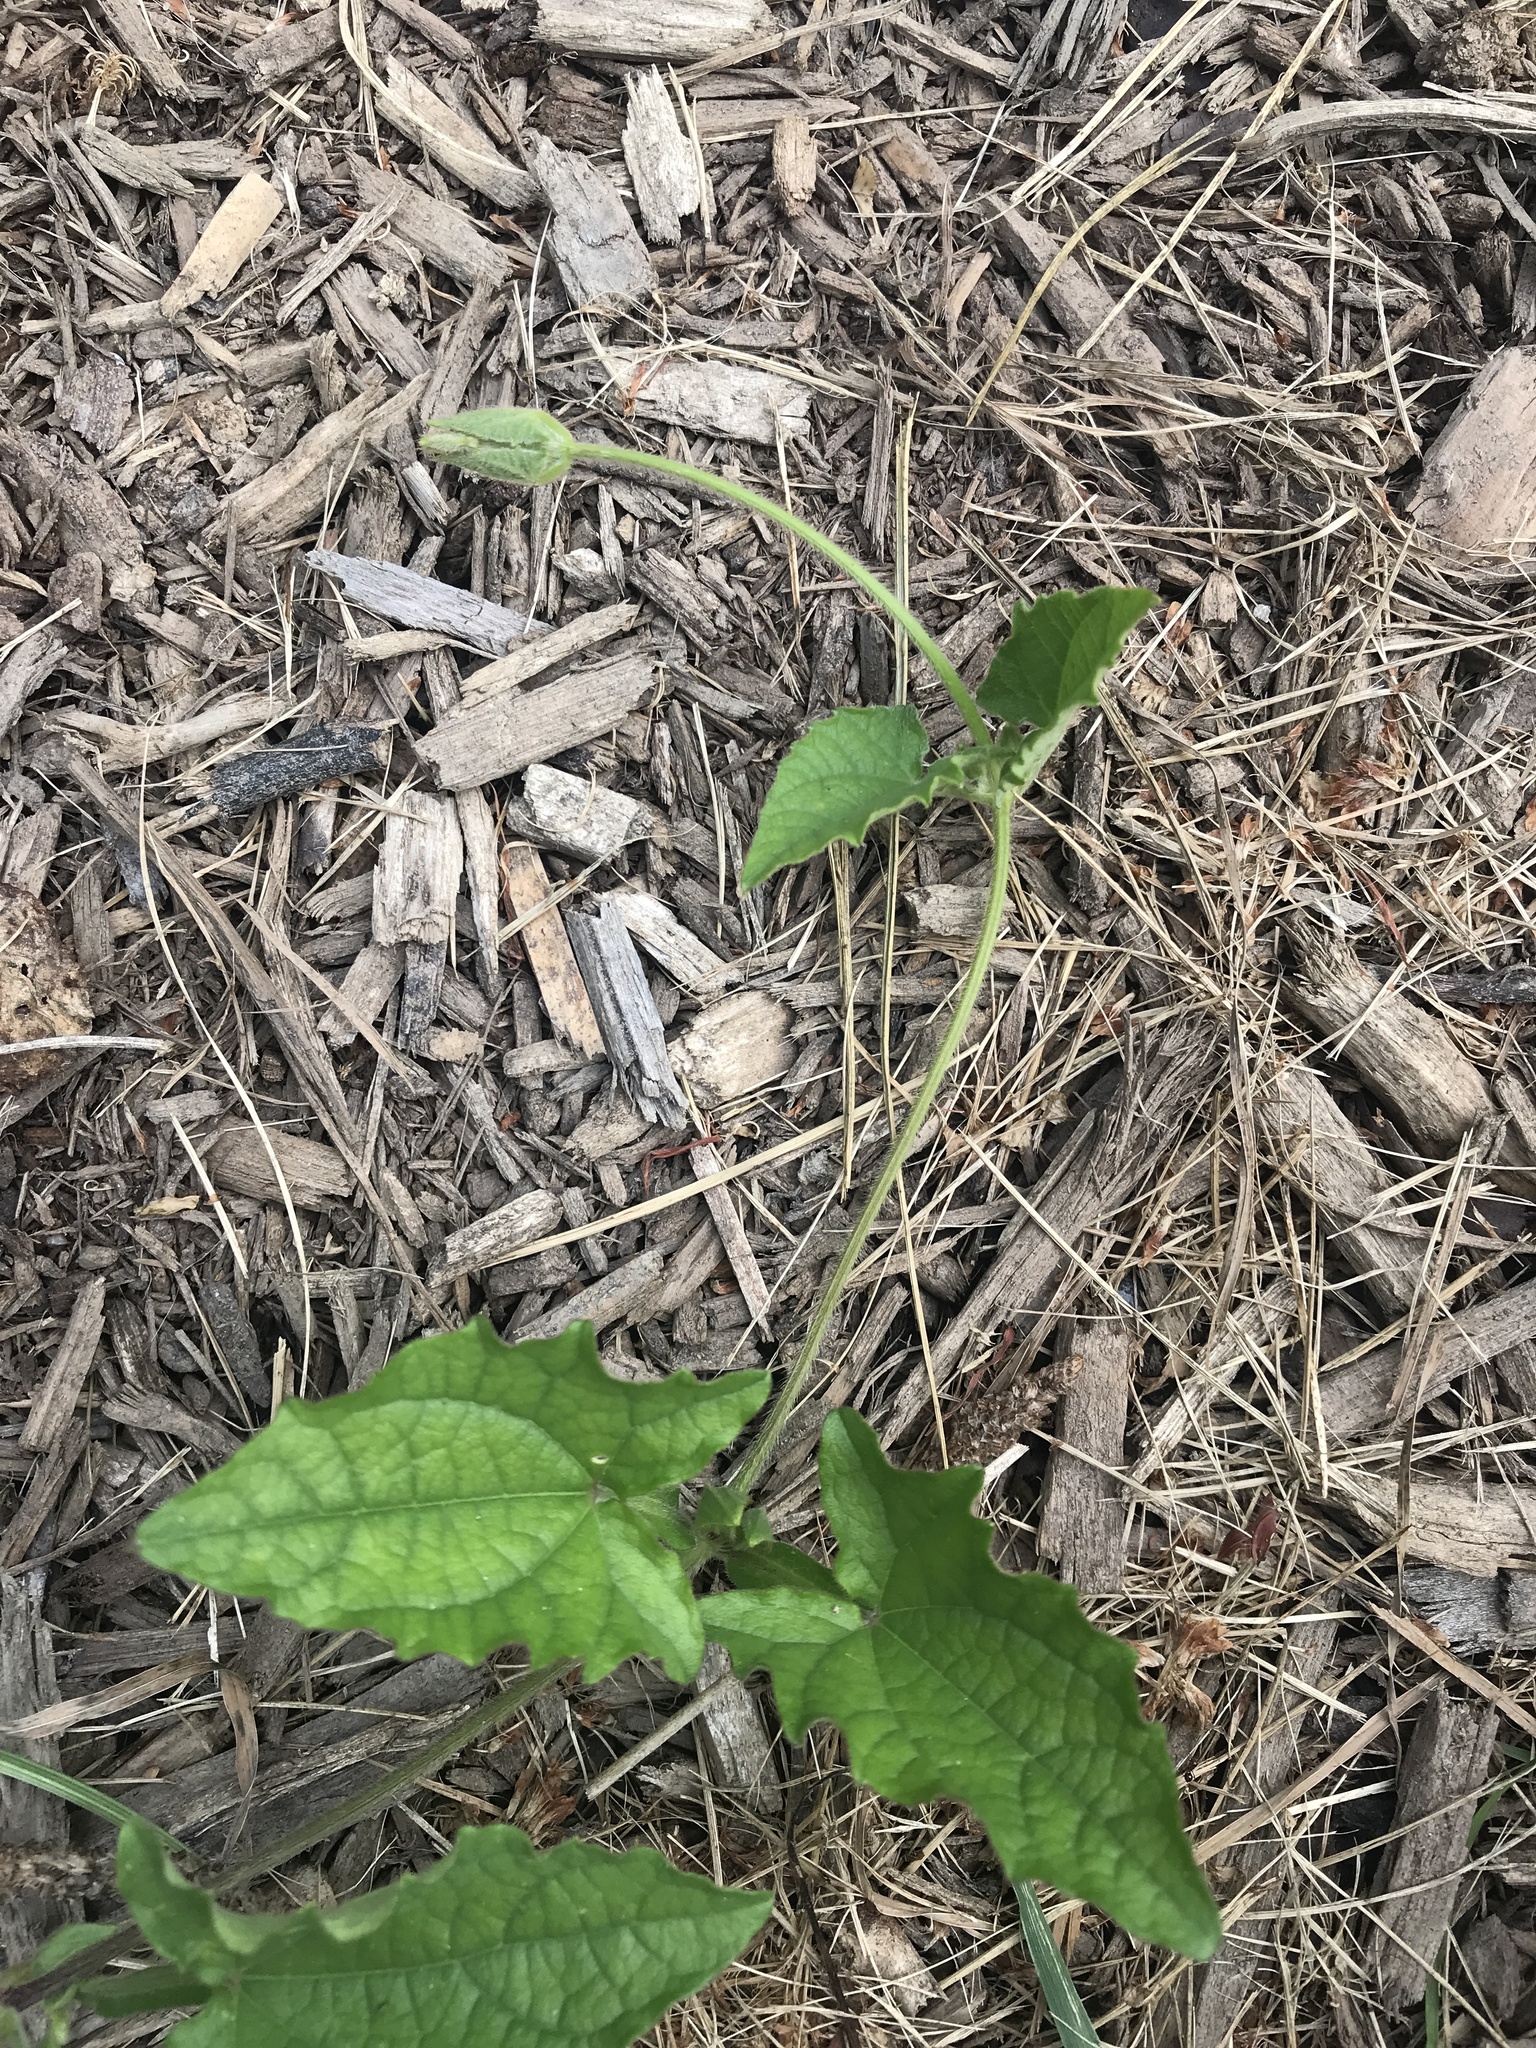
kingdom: Plantae
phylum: Tracheophyta
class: Magnoliopsida
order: Solanales
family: Solanaceae
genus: Solanum
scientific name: Solanum carolinense
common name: Horse-nettle
